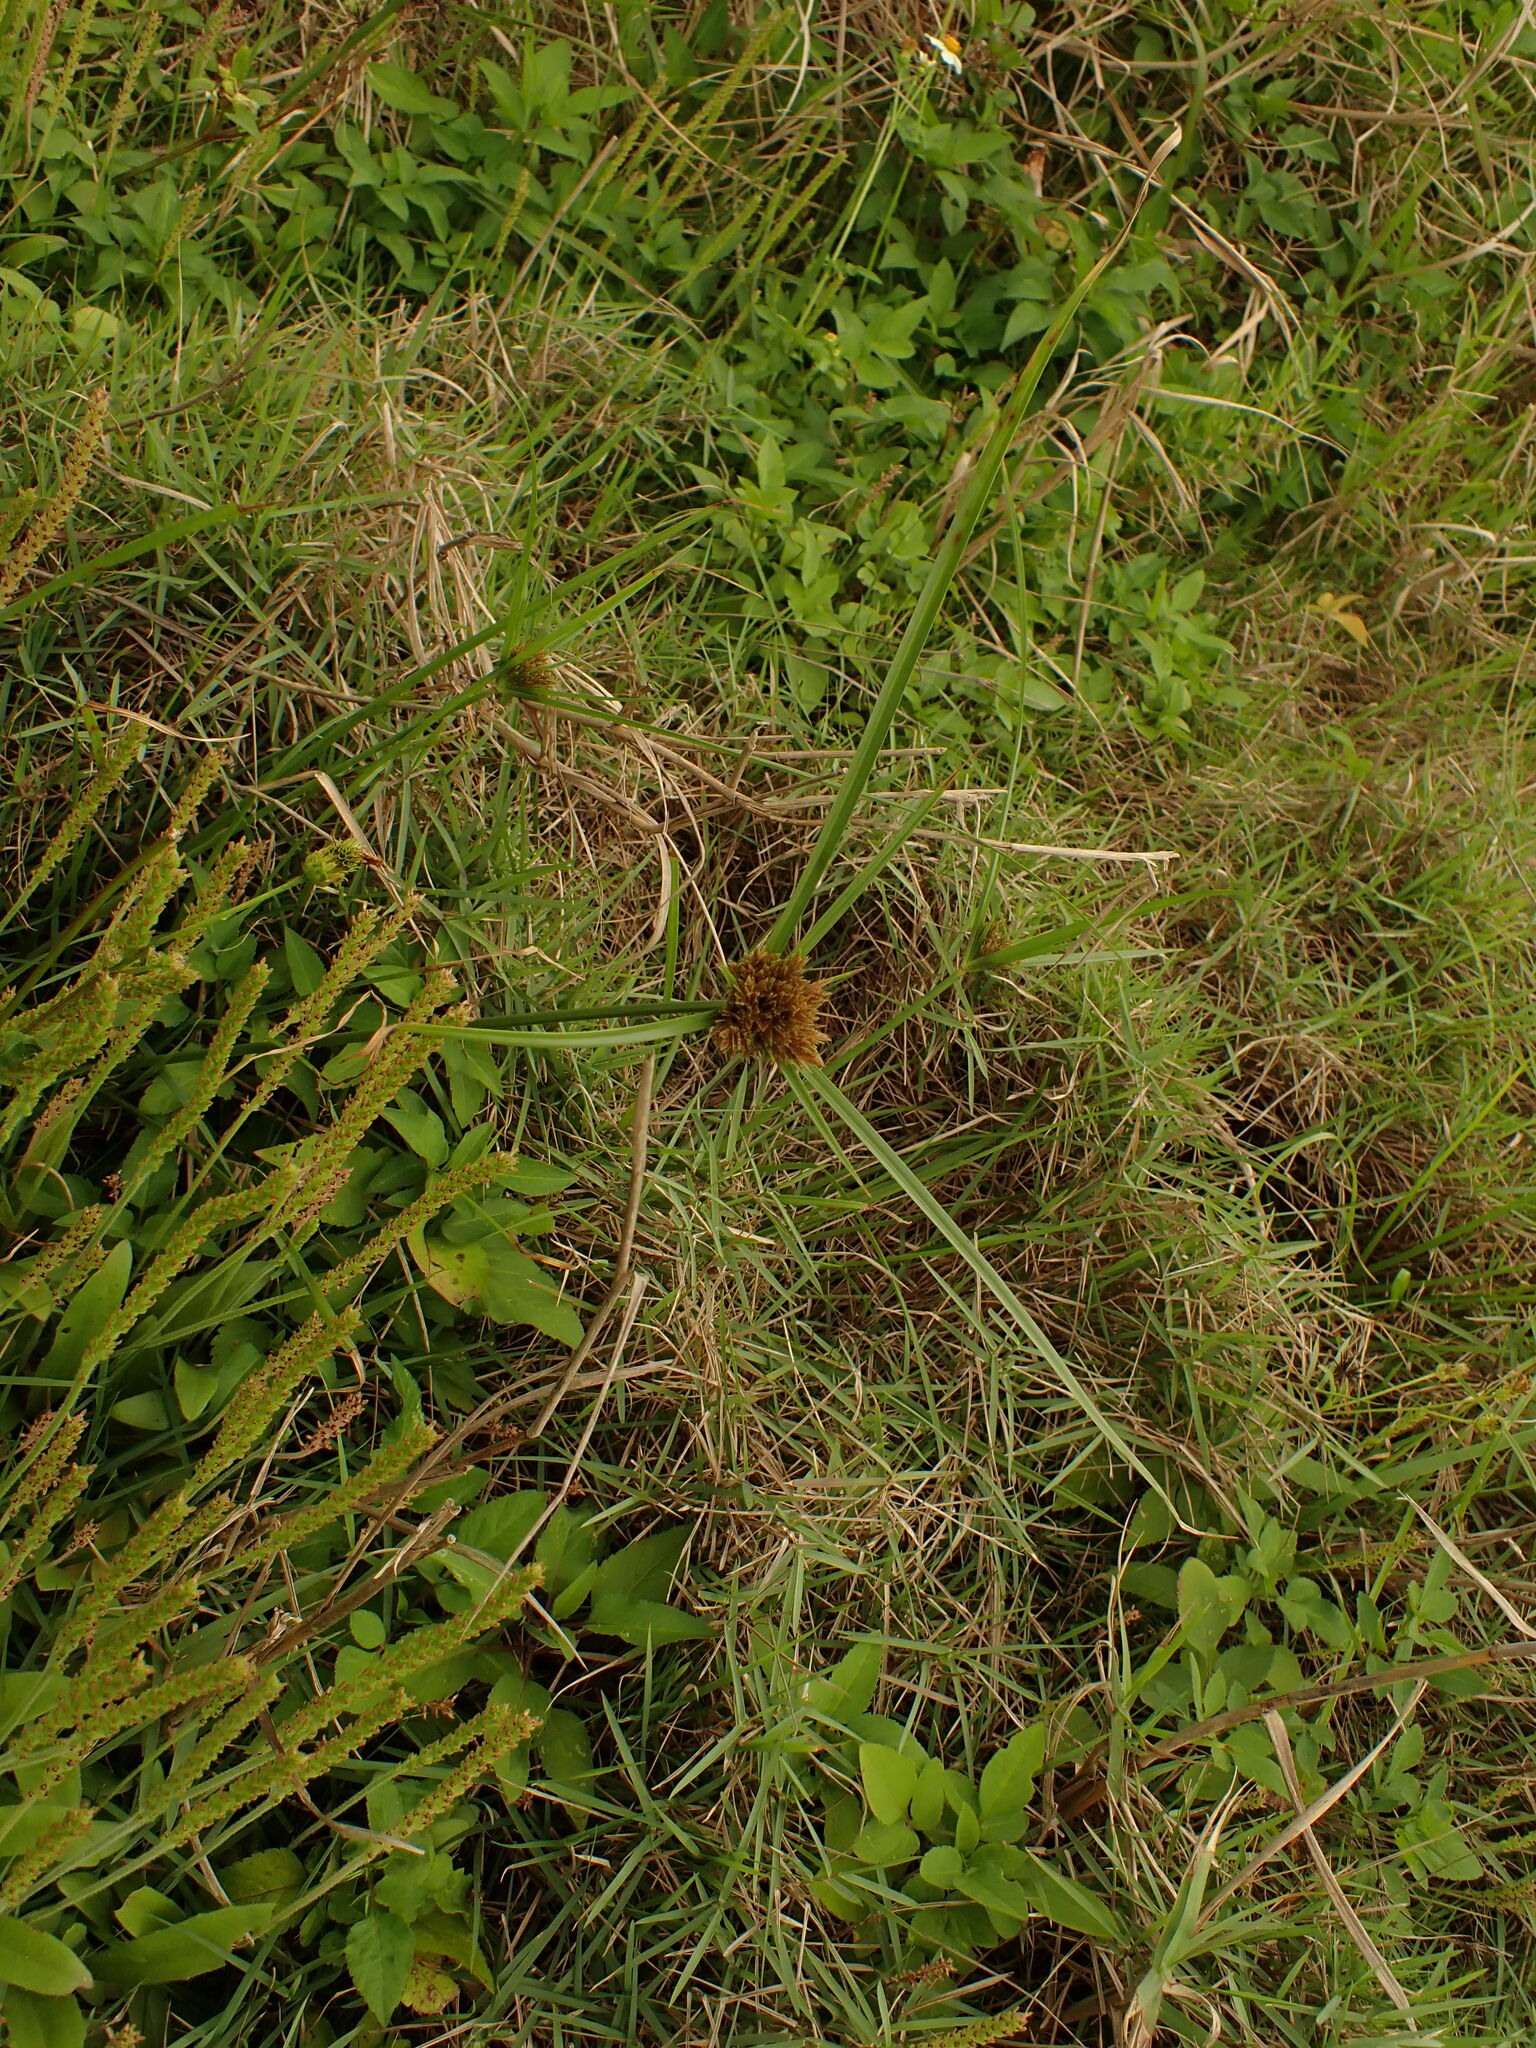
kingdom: Plantae
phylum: Tracheophyta
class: Liliopsida
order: Poales
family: Cyperaceae
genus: Cyperus
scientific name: Cyperus polystachyos
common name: Bunchy flat sedge
